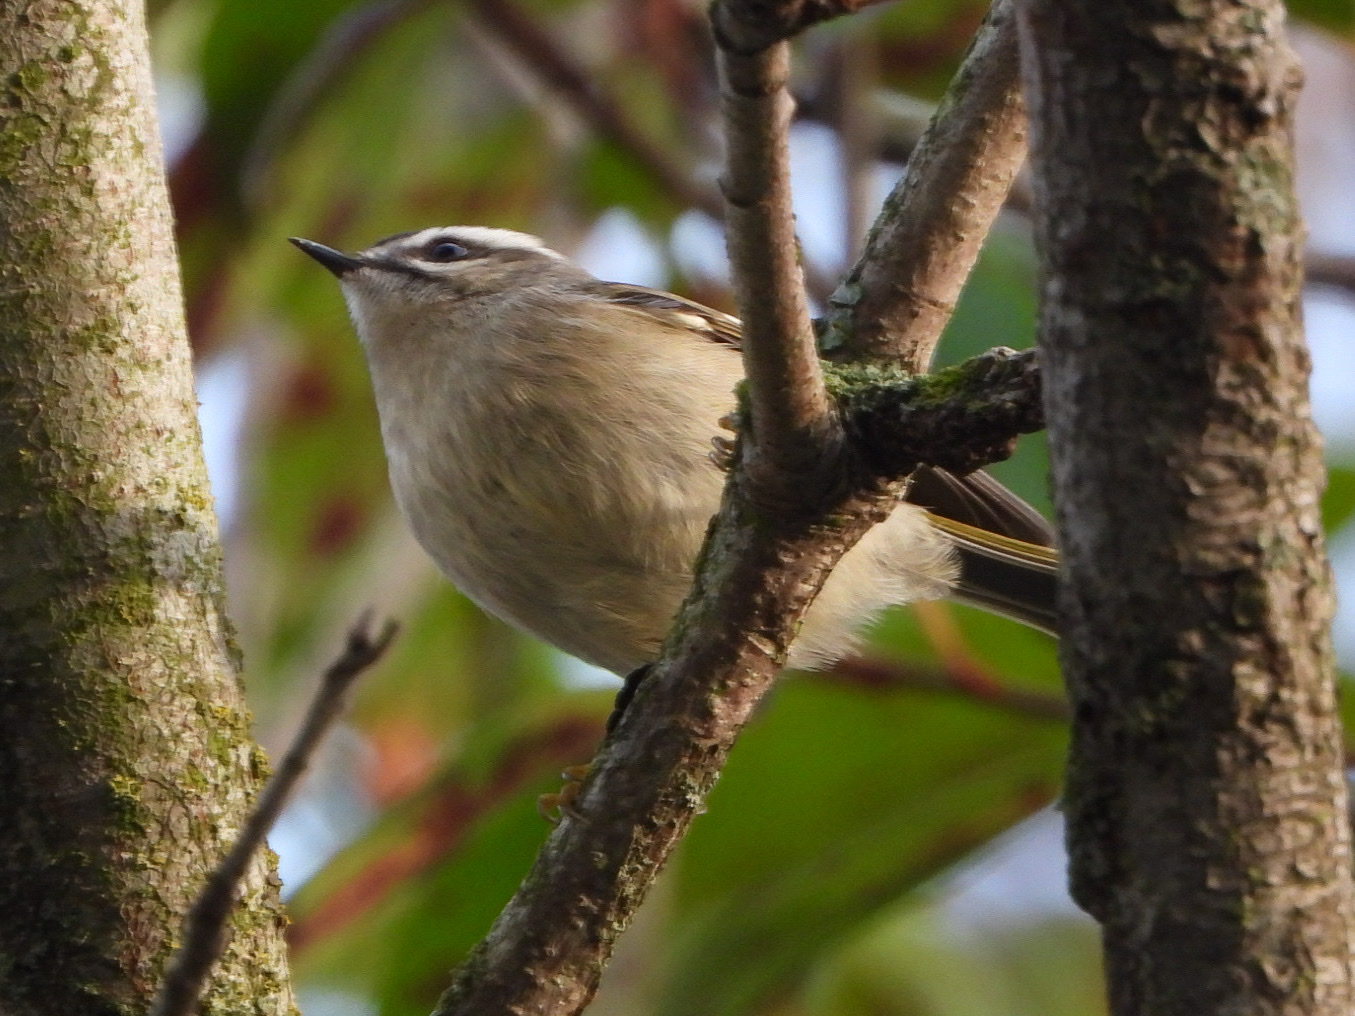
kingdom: Animalia
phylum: Chordata
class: Aves
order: Passeriformes
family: Regulidae
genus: Regulus
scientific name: Regulus satrapa
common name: Golden-crowned kinglet
